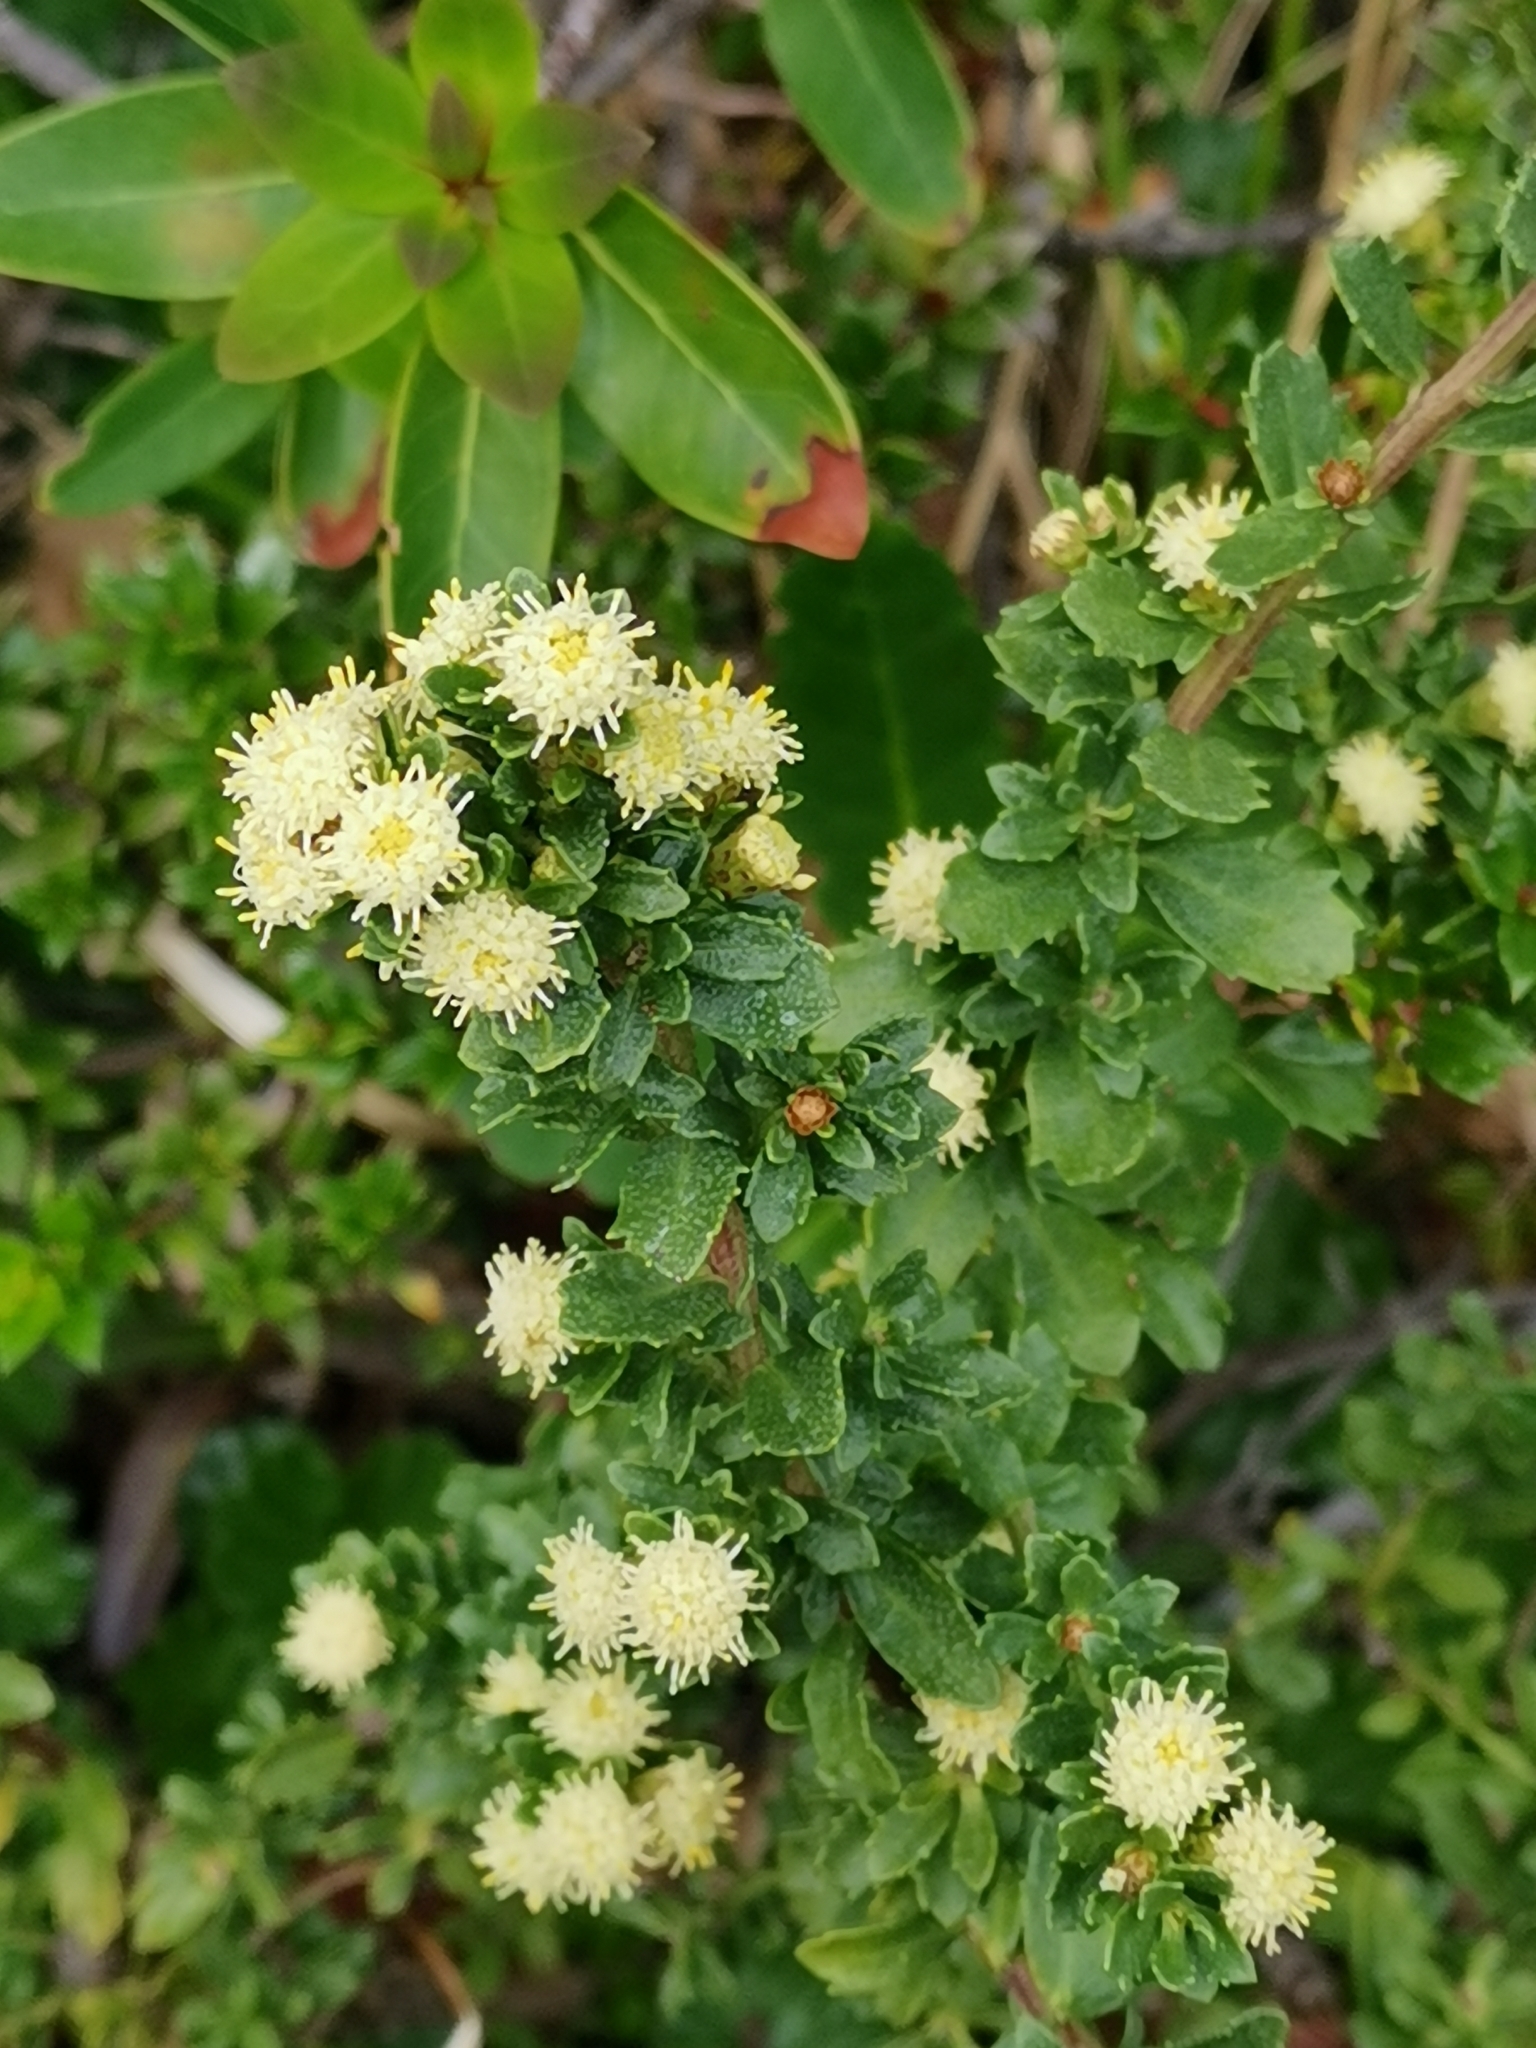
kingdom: Plantae
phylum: Tracheophyta
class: Magnoliopsida
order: Asterales
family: Asteraceae
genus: Baccharis
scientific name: Baccharis magellanica
